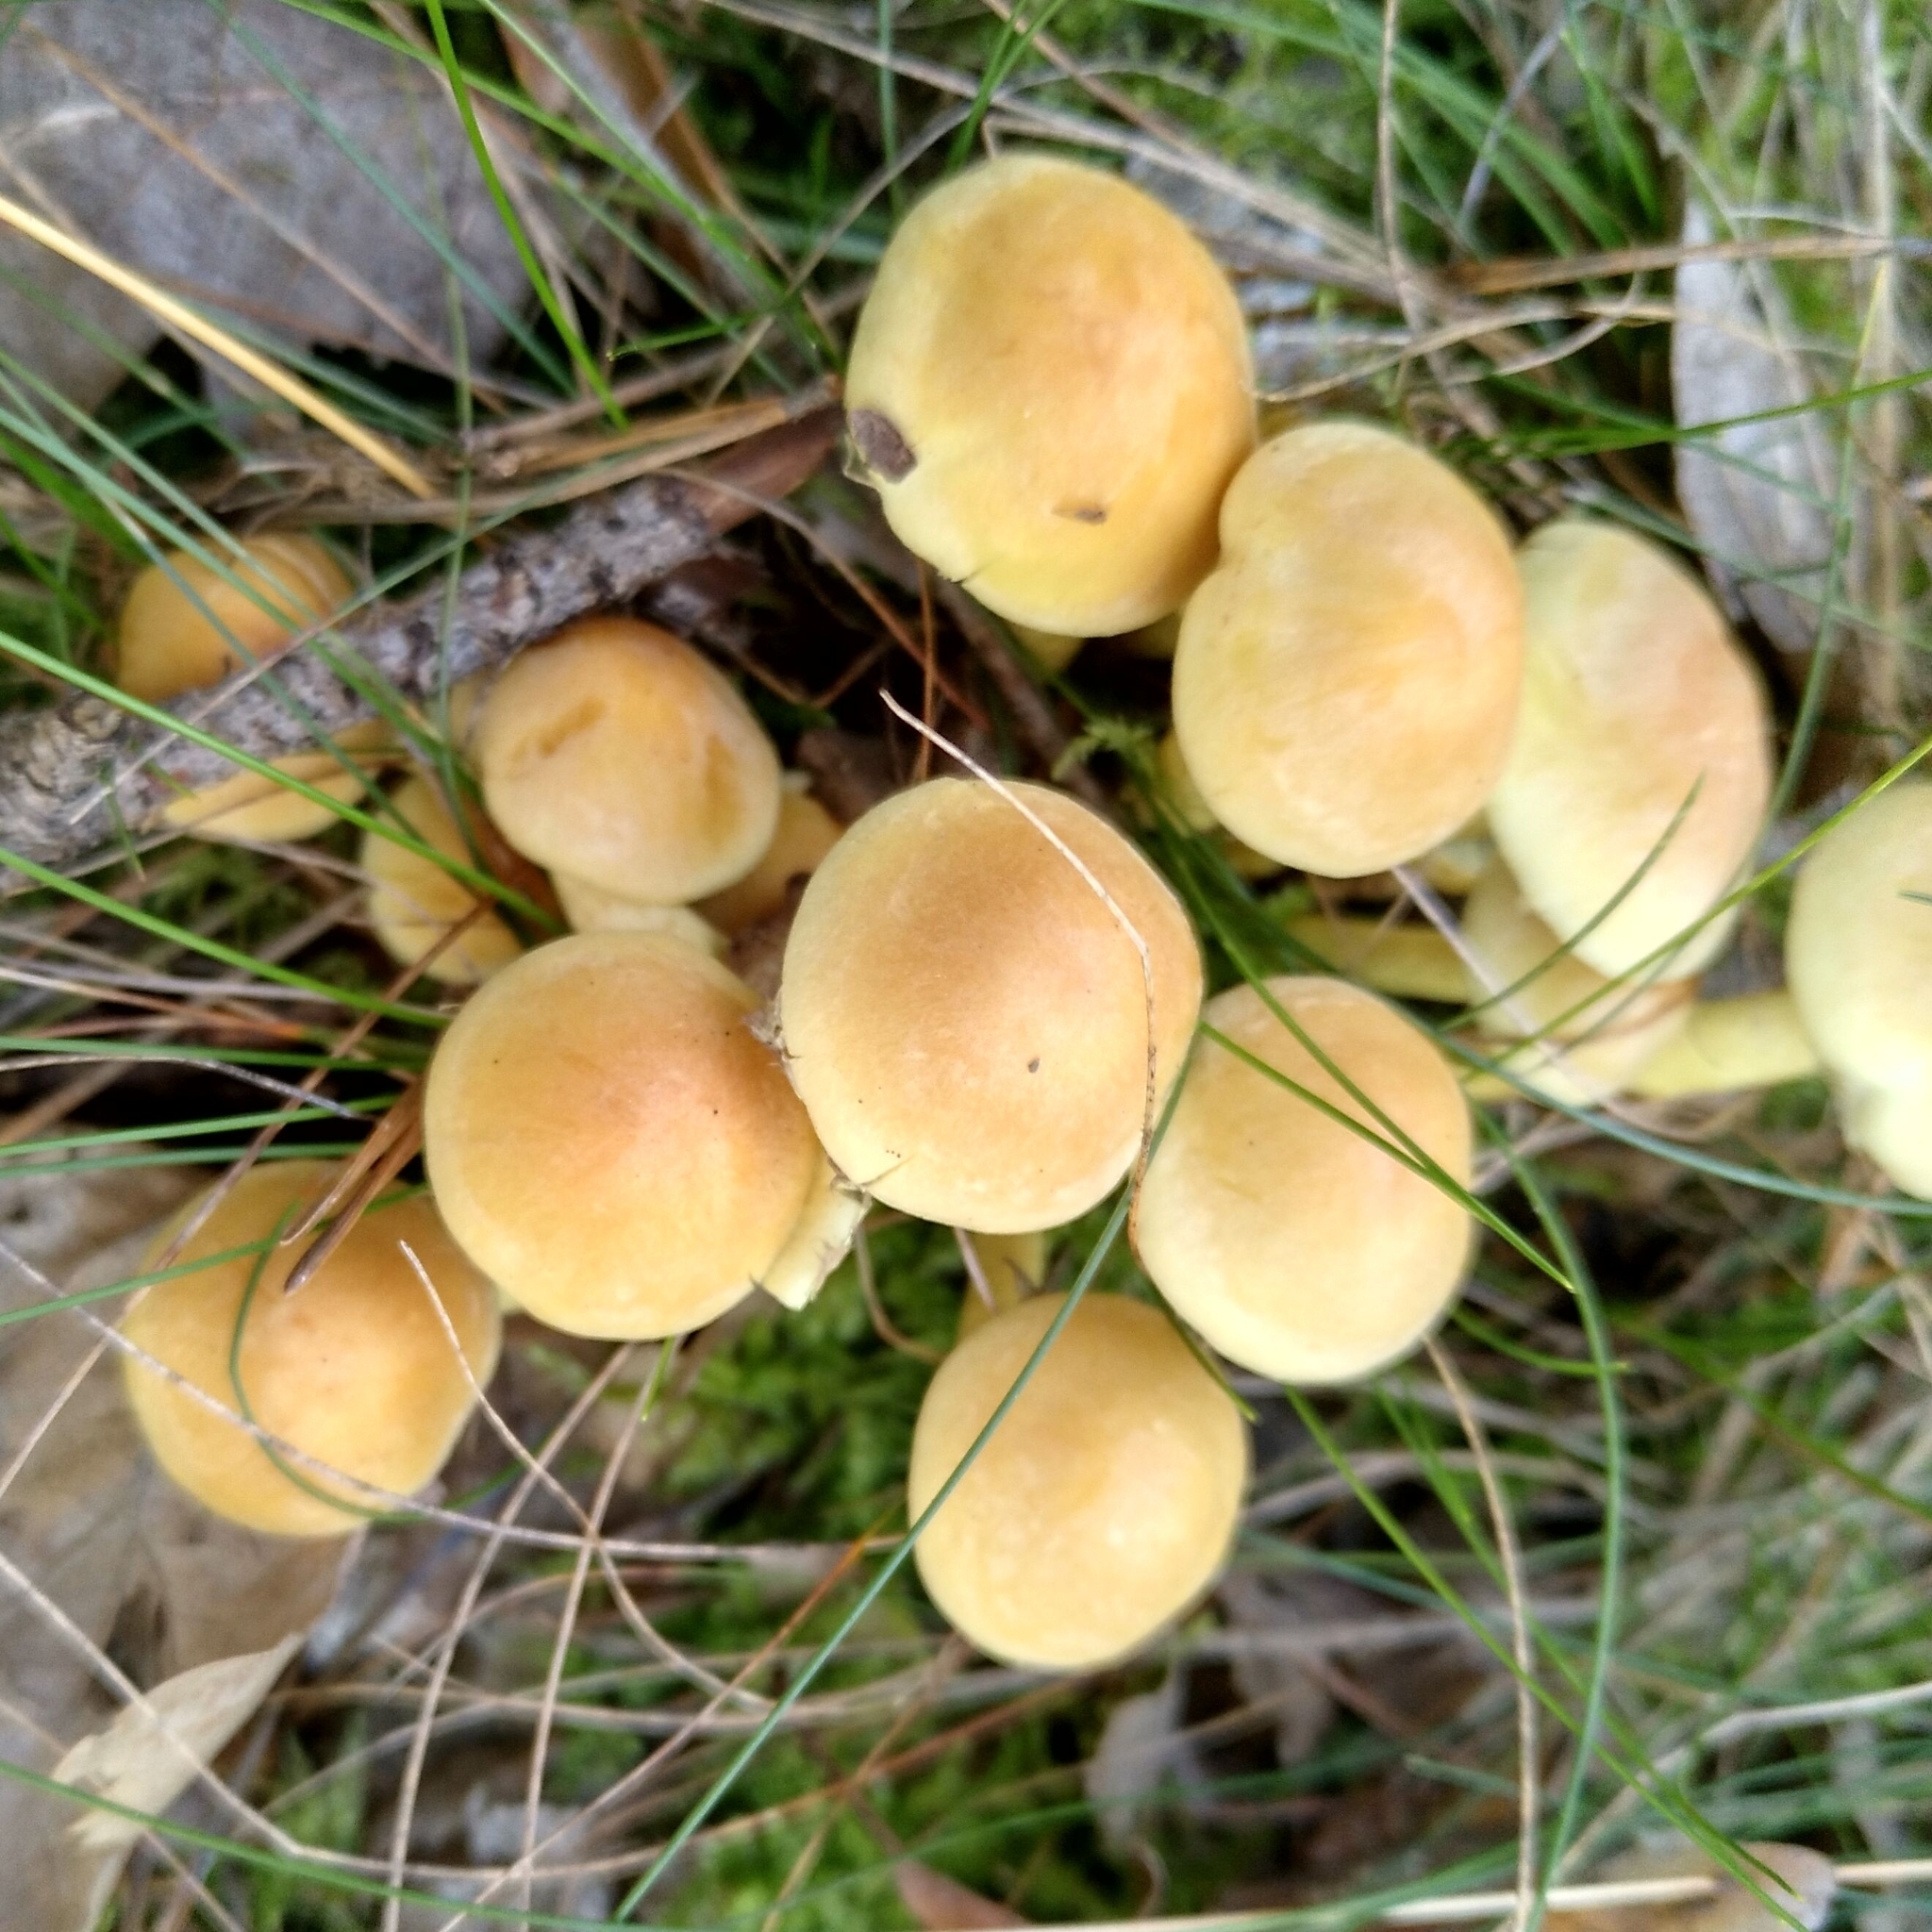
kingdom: Fungi
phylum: Basidiomycota
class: Agaricomycetes
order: Agaricales
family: Strophariaceae
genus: Hypholoma
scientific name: Hypholoma fasciculare
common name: Sulphur tuft
